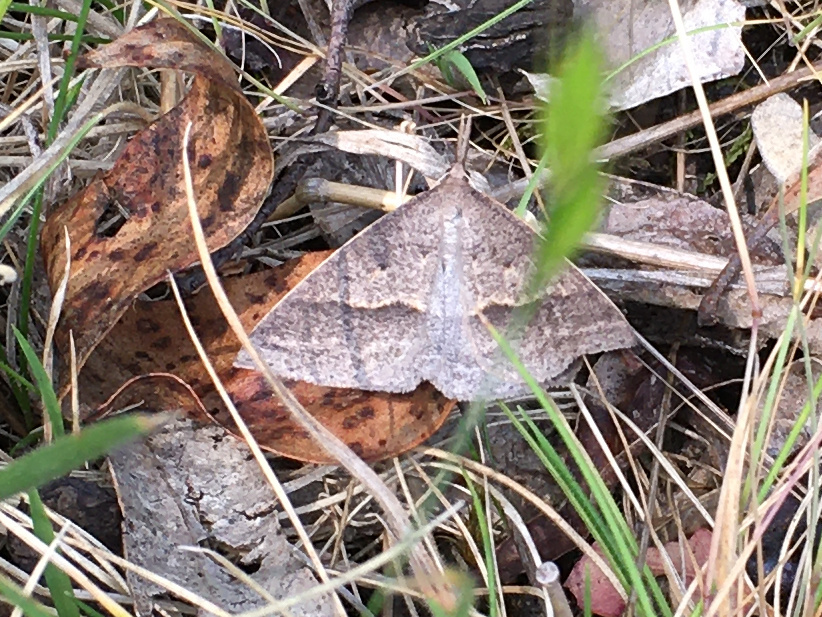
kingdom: Animalia
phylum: Arthropoda
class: Insecta
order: Lepidoptera
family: Geometridae
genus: Epidesmia
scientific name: Epidesmia hypenaria
